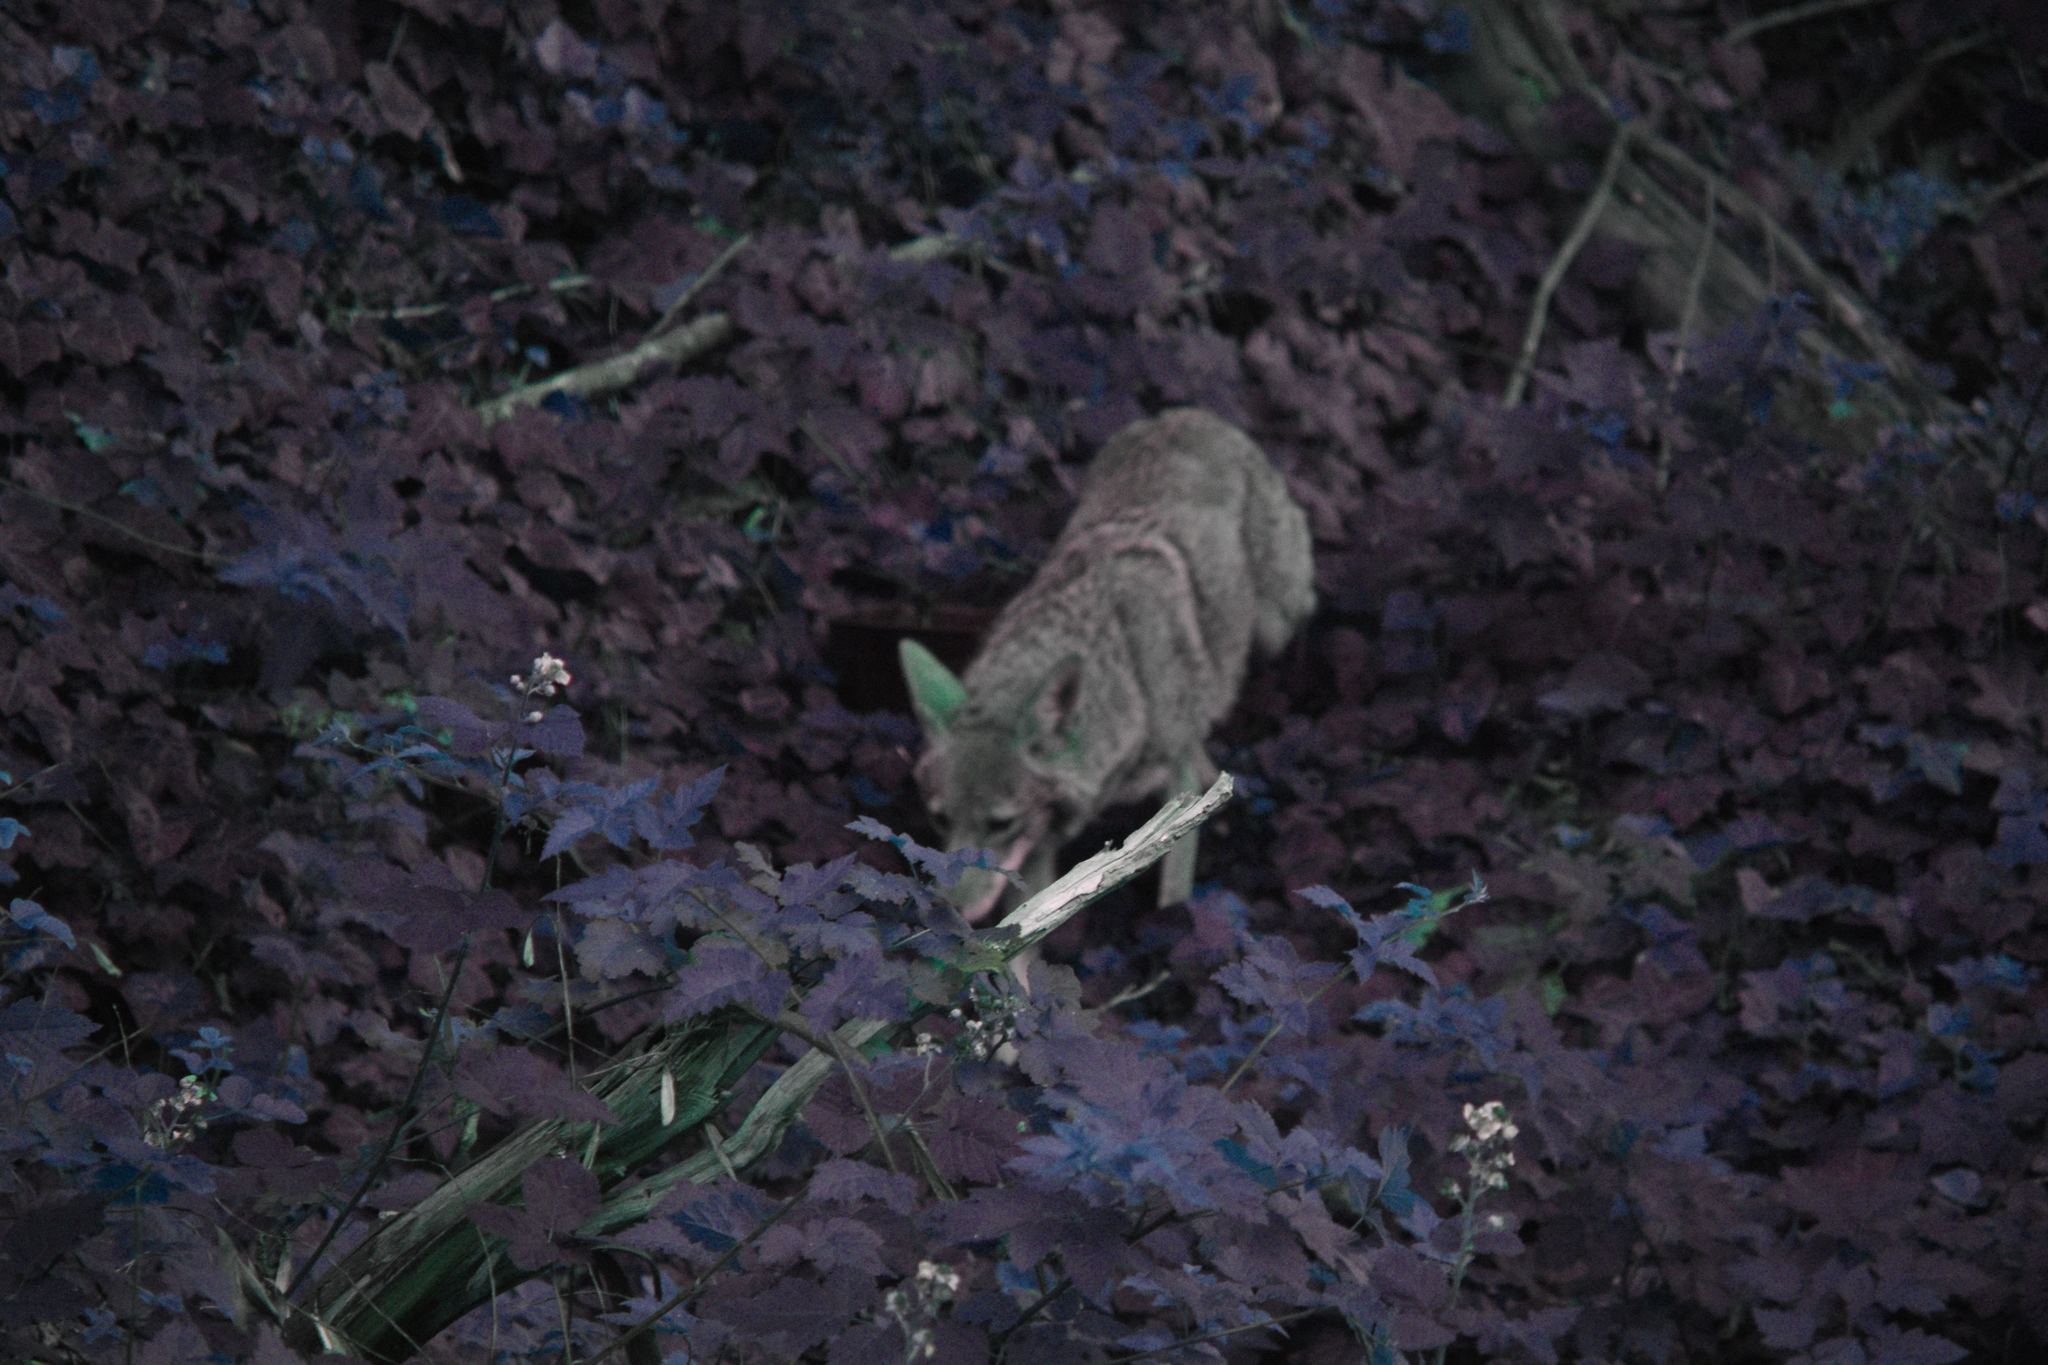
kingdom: Animalia
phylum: Chordata
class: Mammalia
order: Carnivora
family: Canidae
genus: Canis
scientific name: Canis latrans
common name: Coyote
